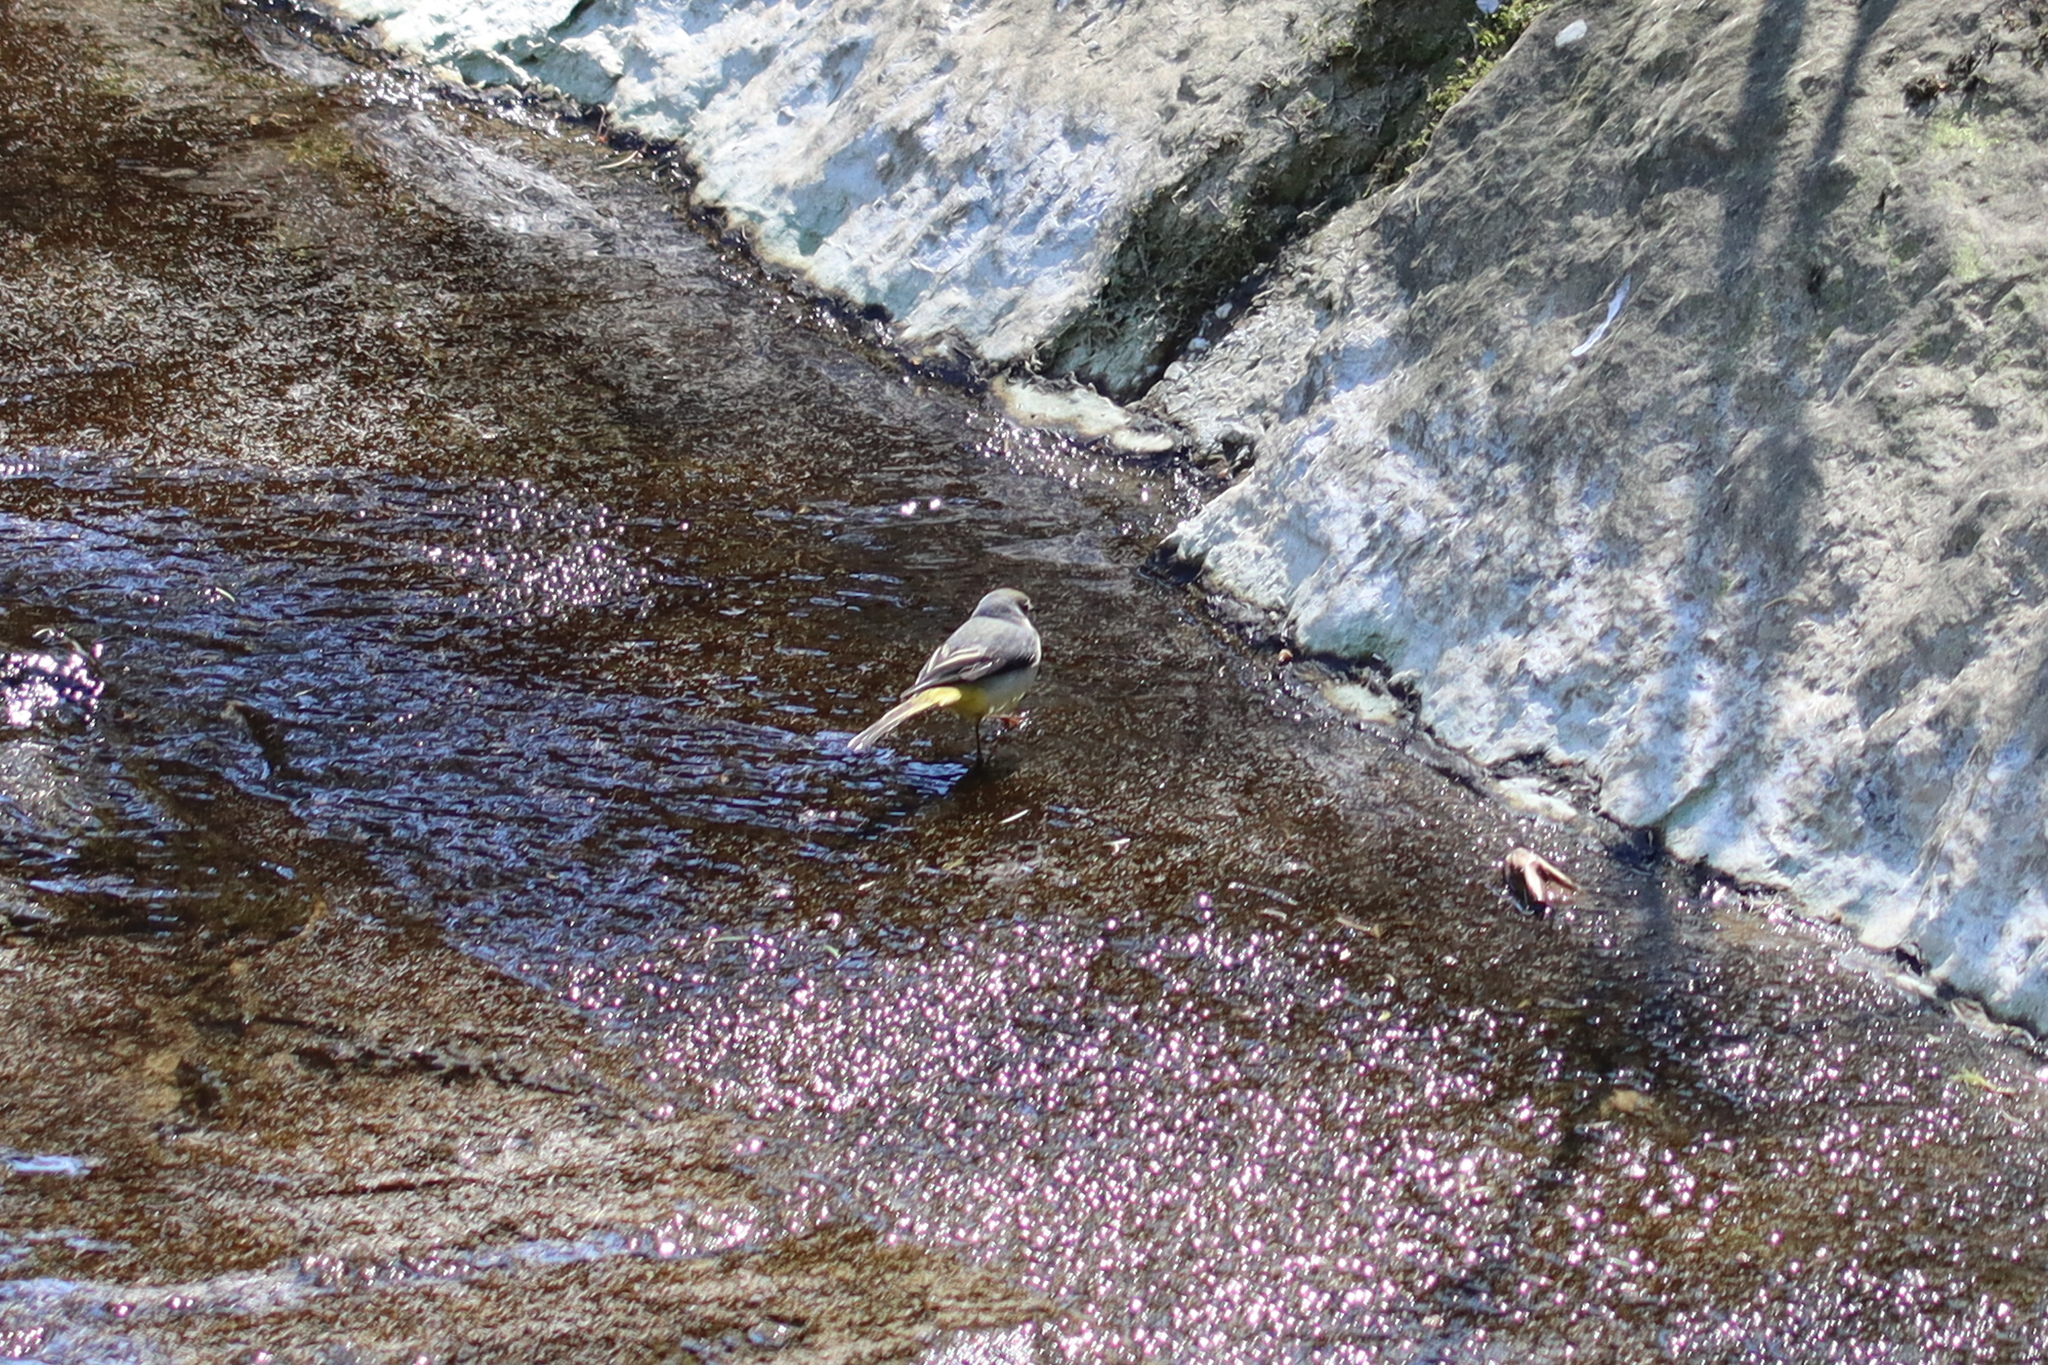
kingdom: Animalia
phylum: Chordata
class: Aves
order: Passeriformes
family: Motacillidae
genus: Motacilla
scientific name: Motacilla cinerea
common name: Grey wagtail
